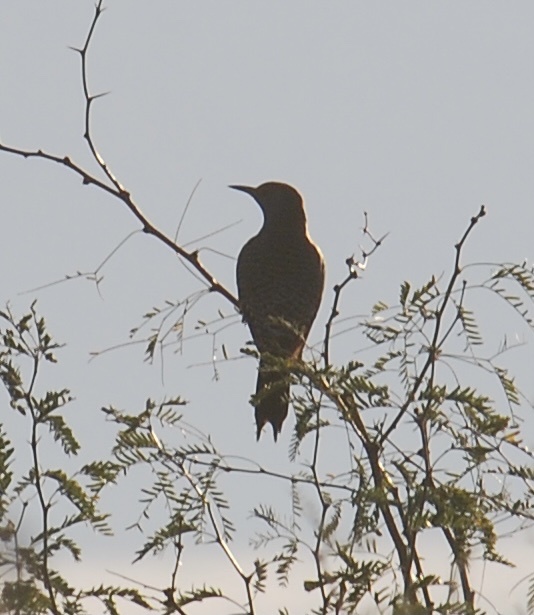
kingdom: Animalia
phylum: Chordata
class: Aves
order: Piciformes
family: Picidae
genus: Colaptes
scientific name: Colaptes auratus
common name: Northern flicker
